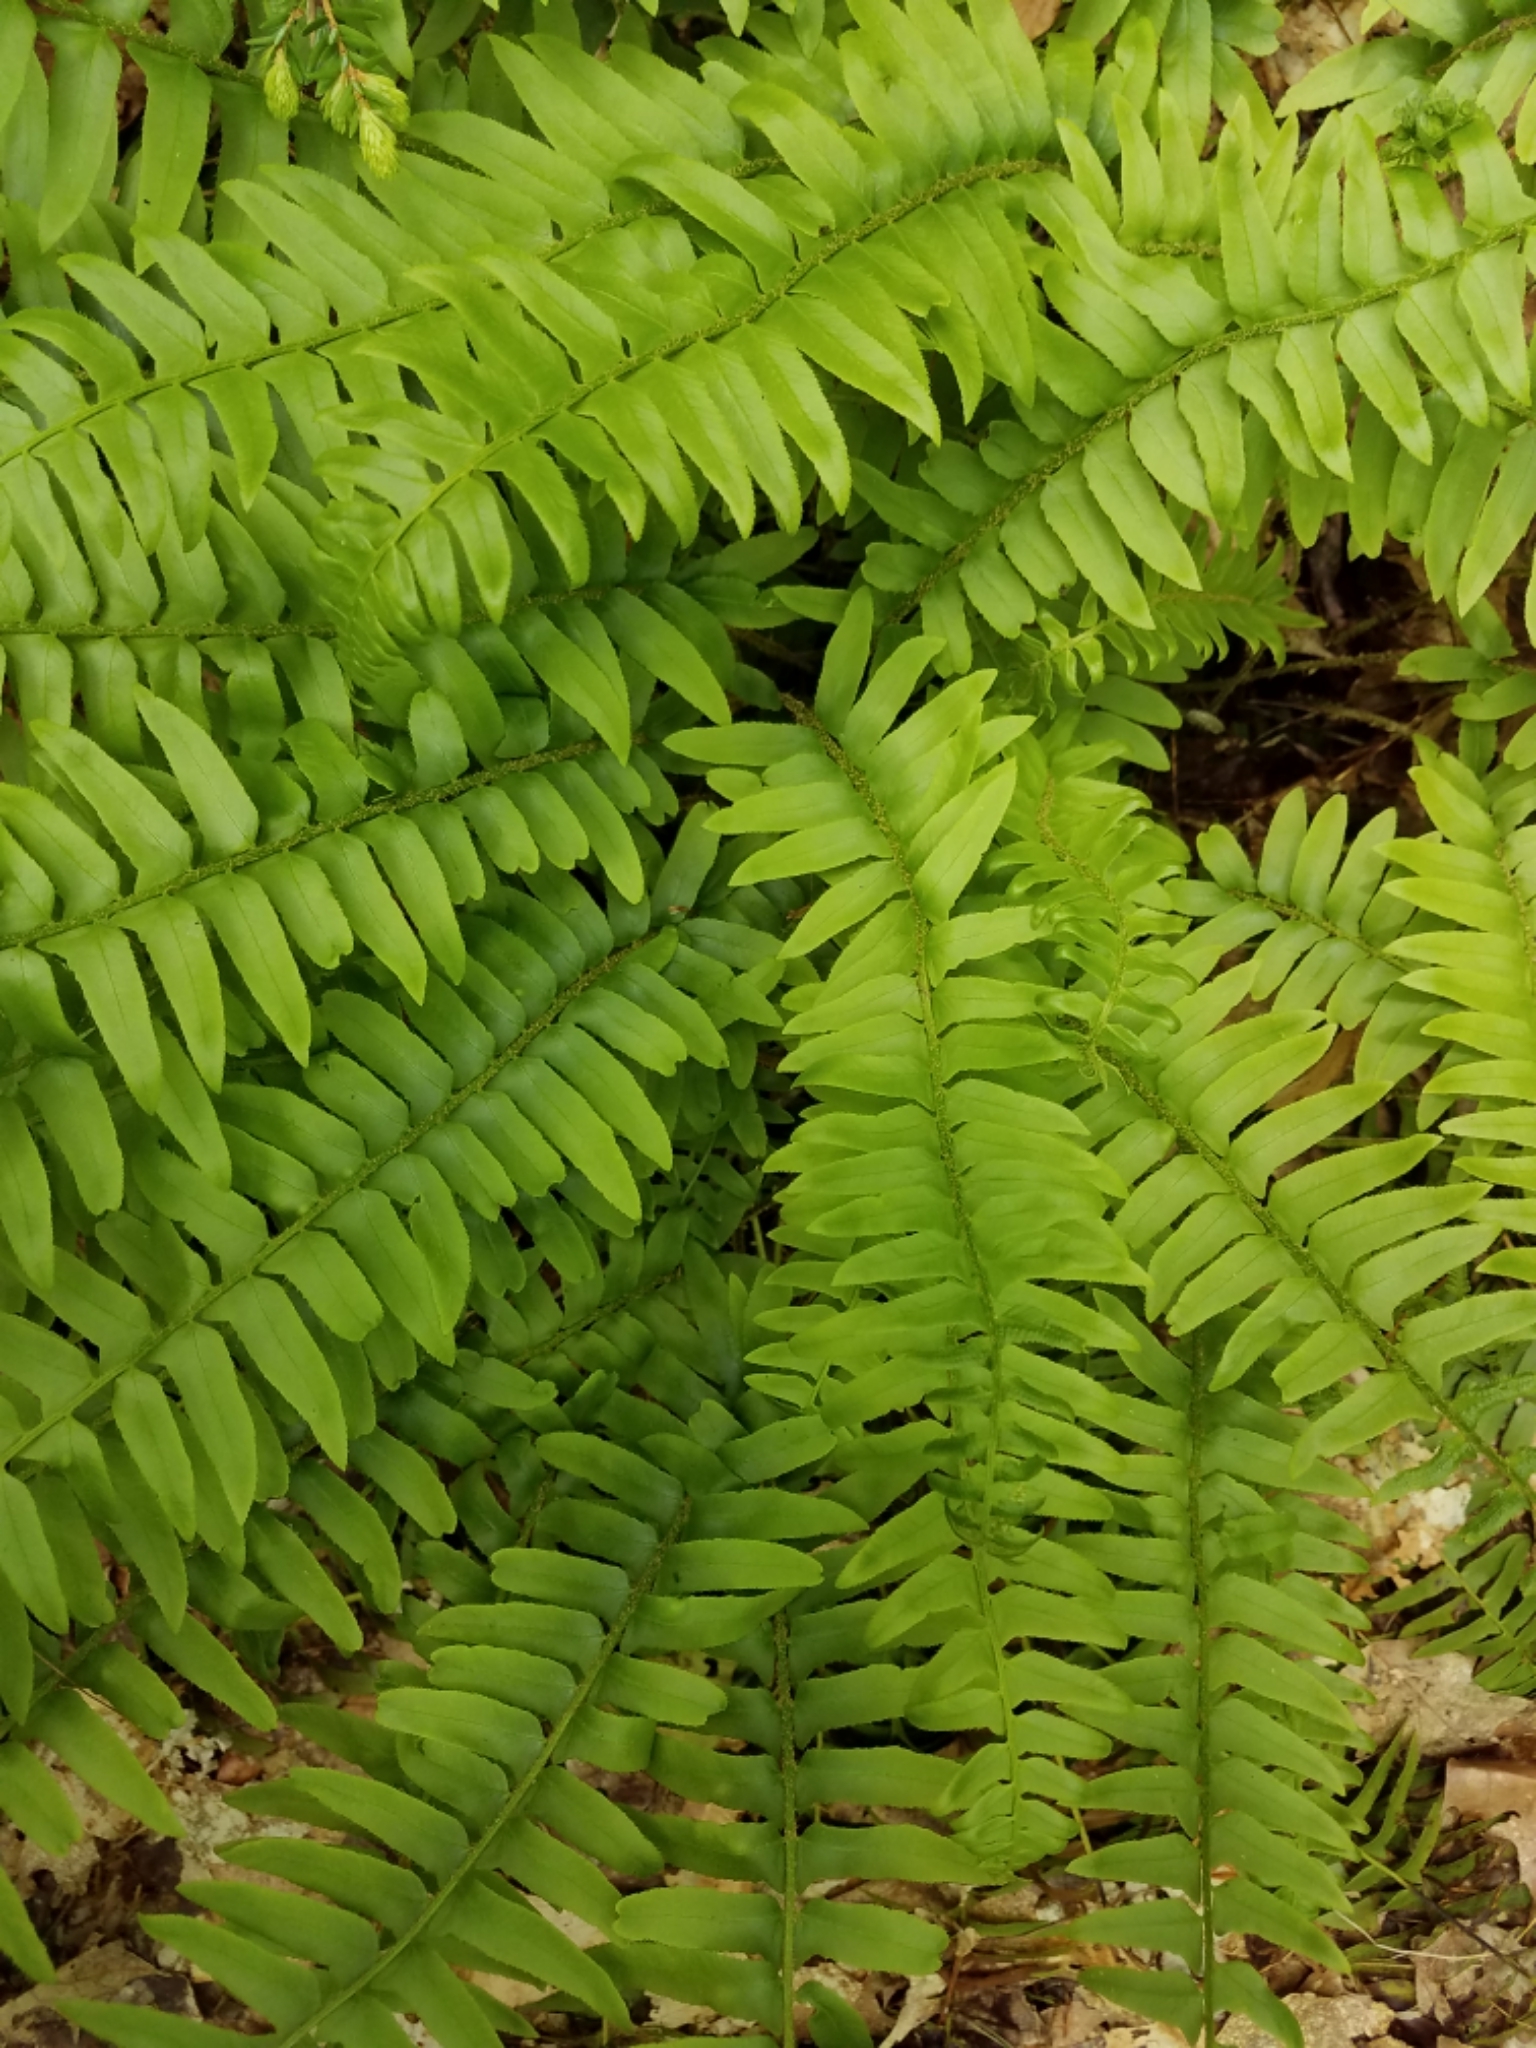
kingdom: Plantae
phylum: Tracheophyta
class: Polypodiopsida
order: Polypodiales
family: Dryopteridaceae
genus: Polystichum
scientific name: Polystichum acrostichoides
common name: Christmas fern
